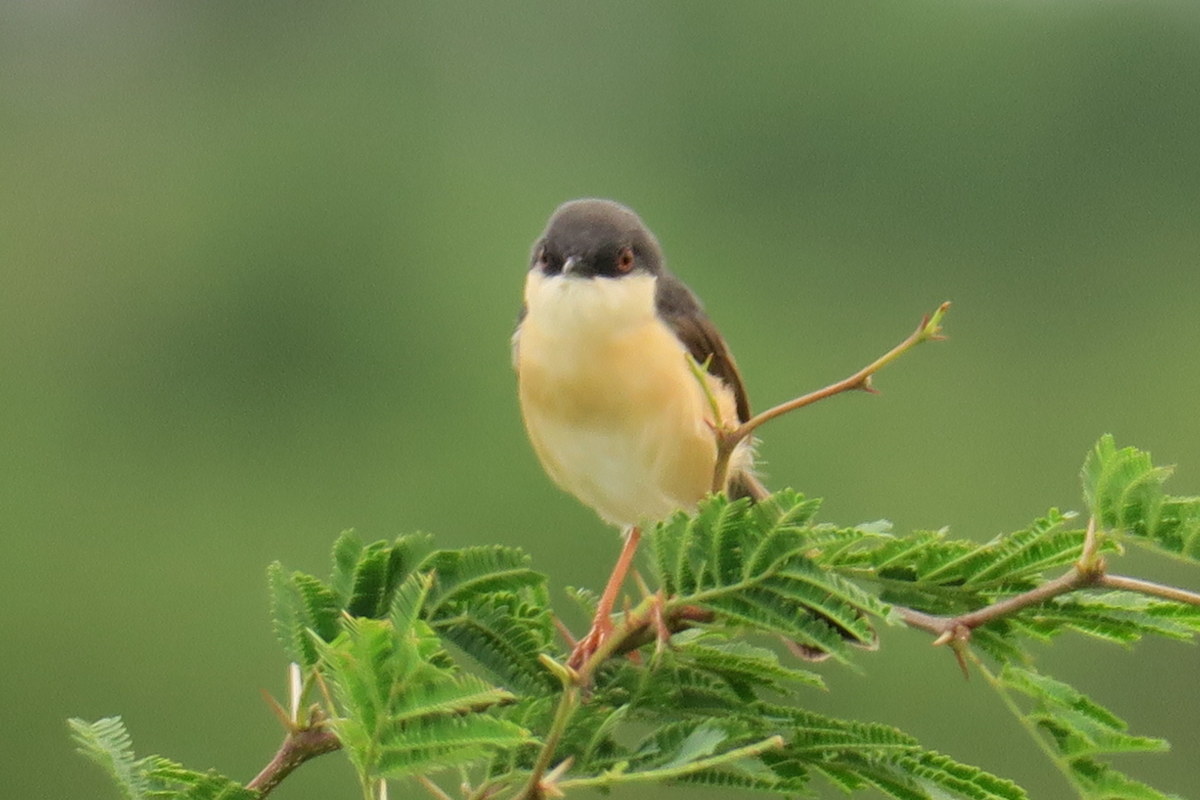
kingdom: Animalia
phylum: Chordata
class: Aves
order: Passeriformes
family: Cisticolidae
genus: Prinia
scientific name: Prinia socialis
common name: Ashy prinia
